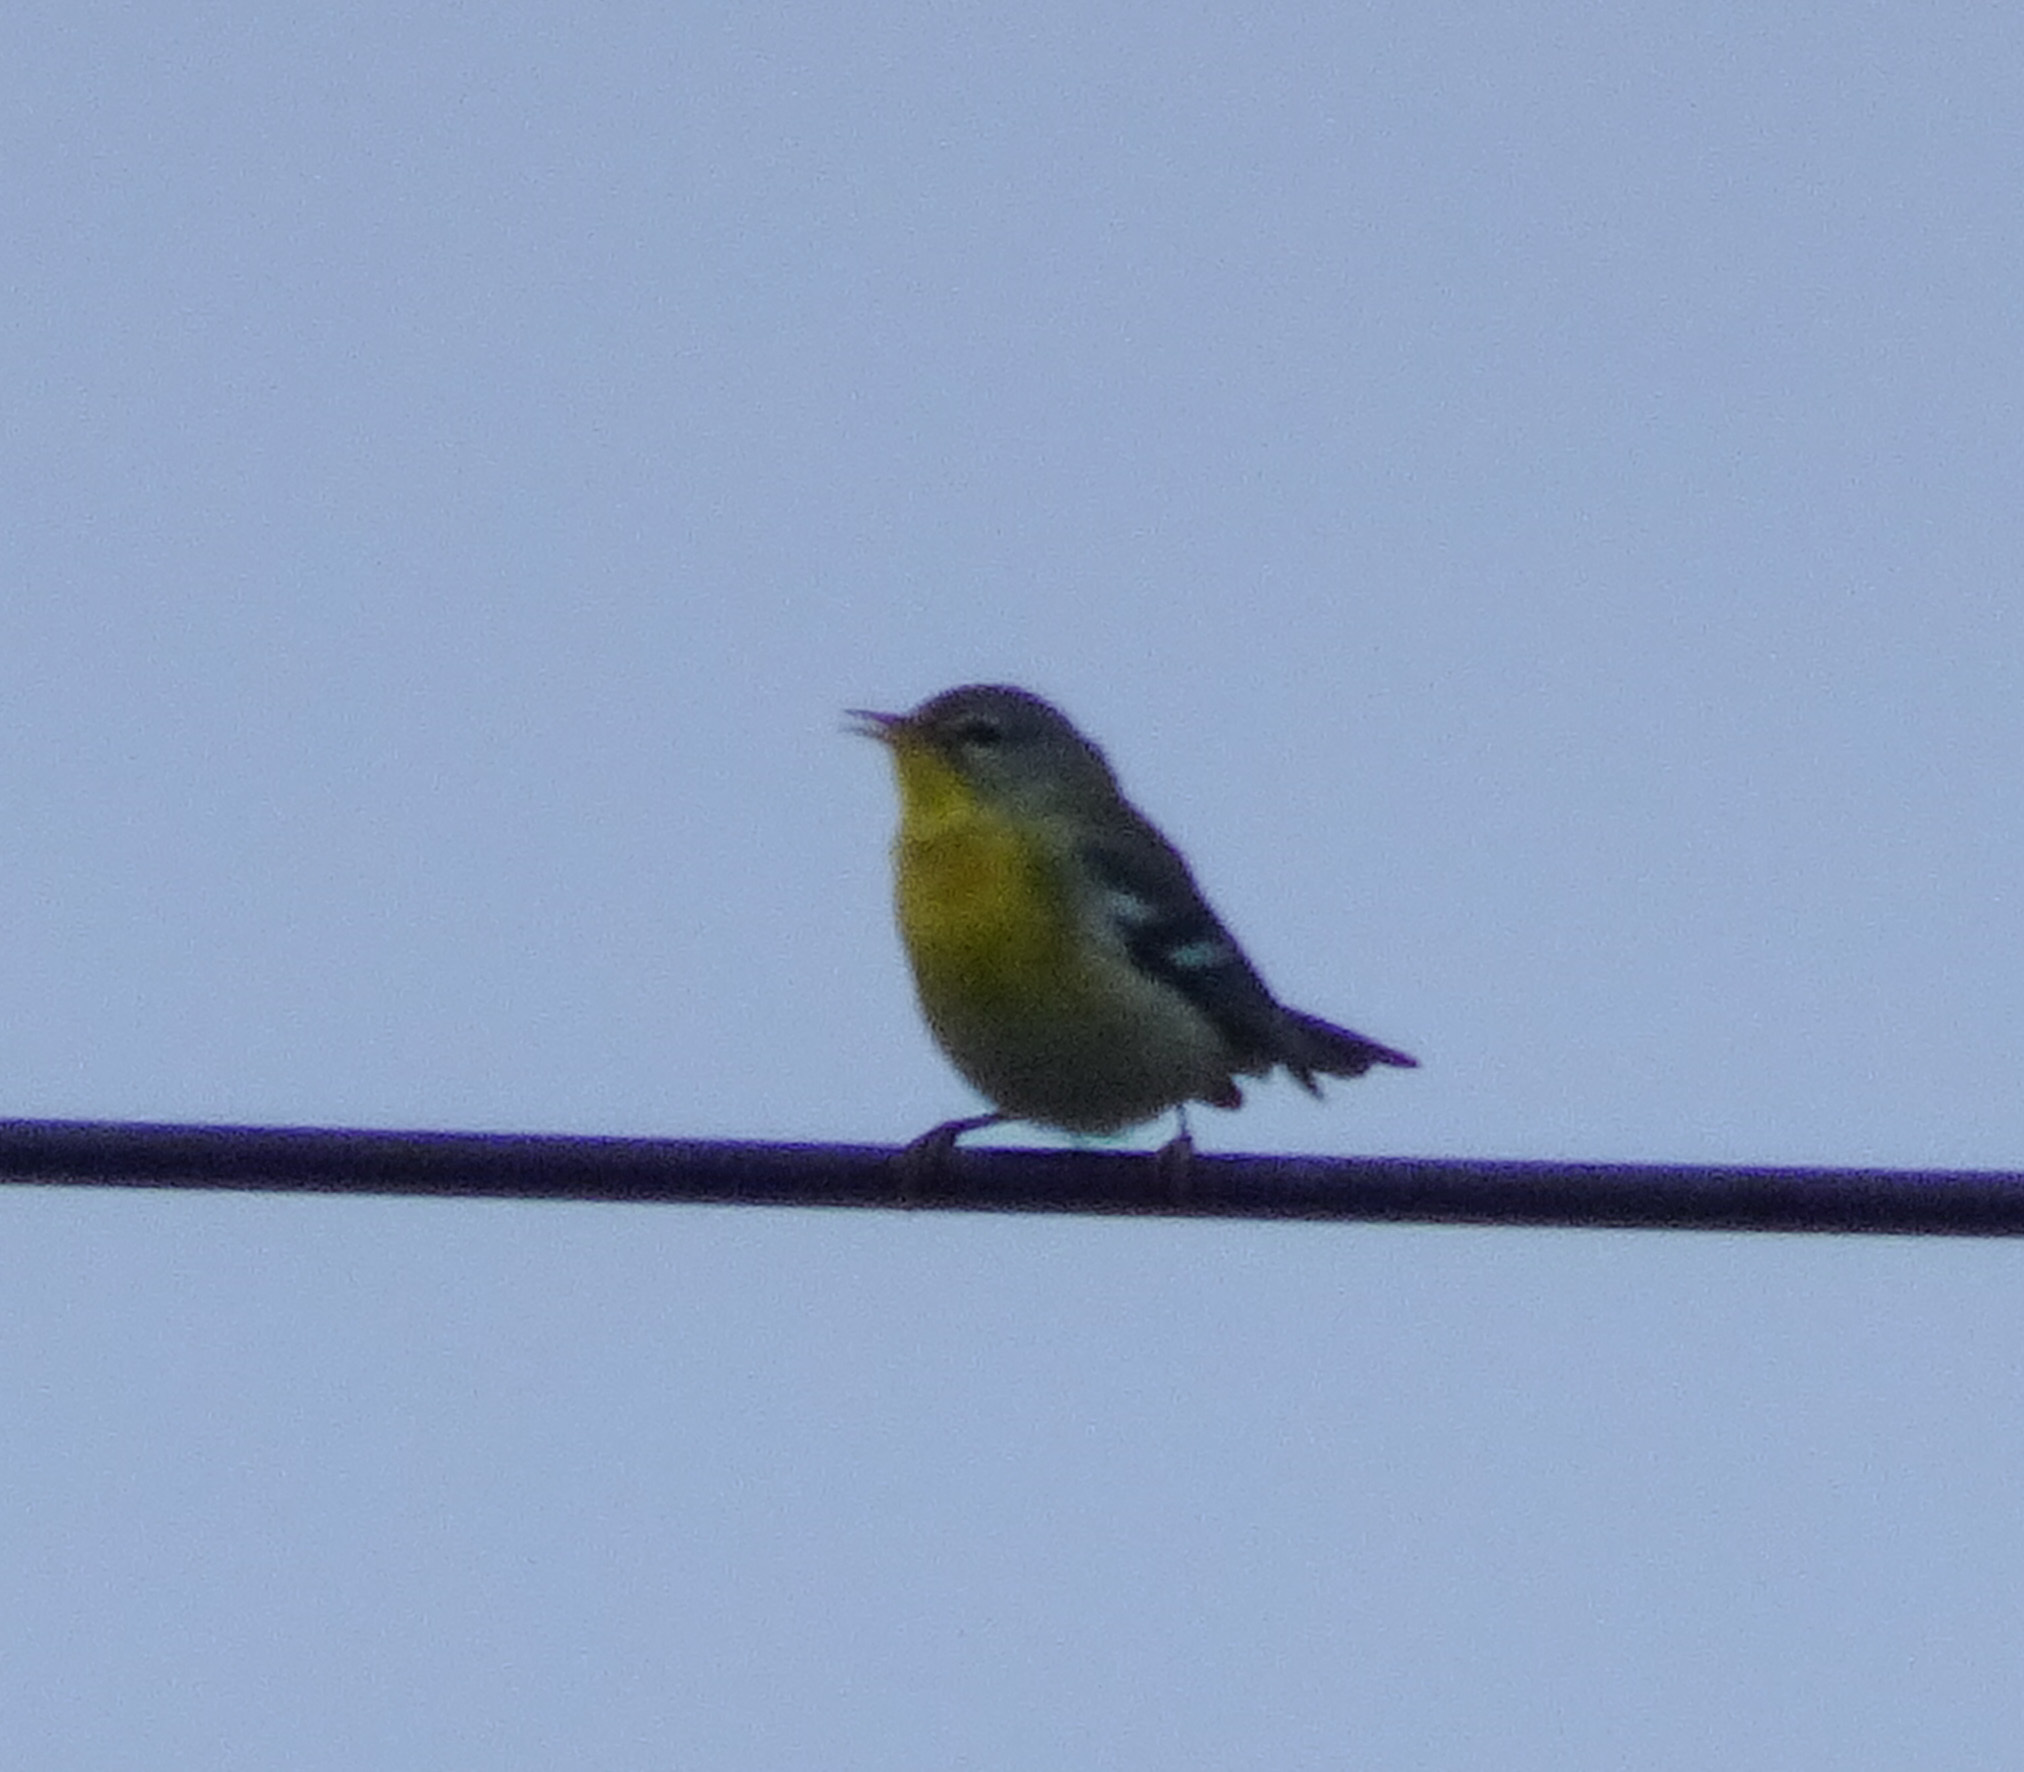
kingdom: Animalia
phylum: Chordata
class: Aves
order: Passeriformes
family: Parulidae
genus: Setophaga
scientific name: Setophaga americana
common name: Northern parula
